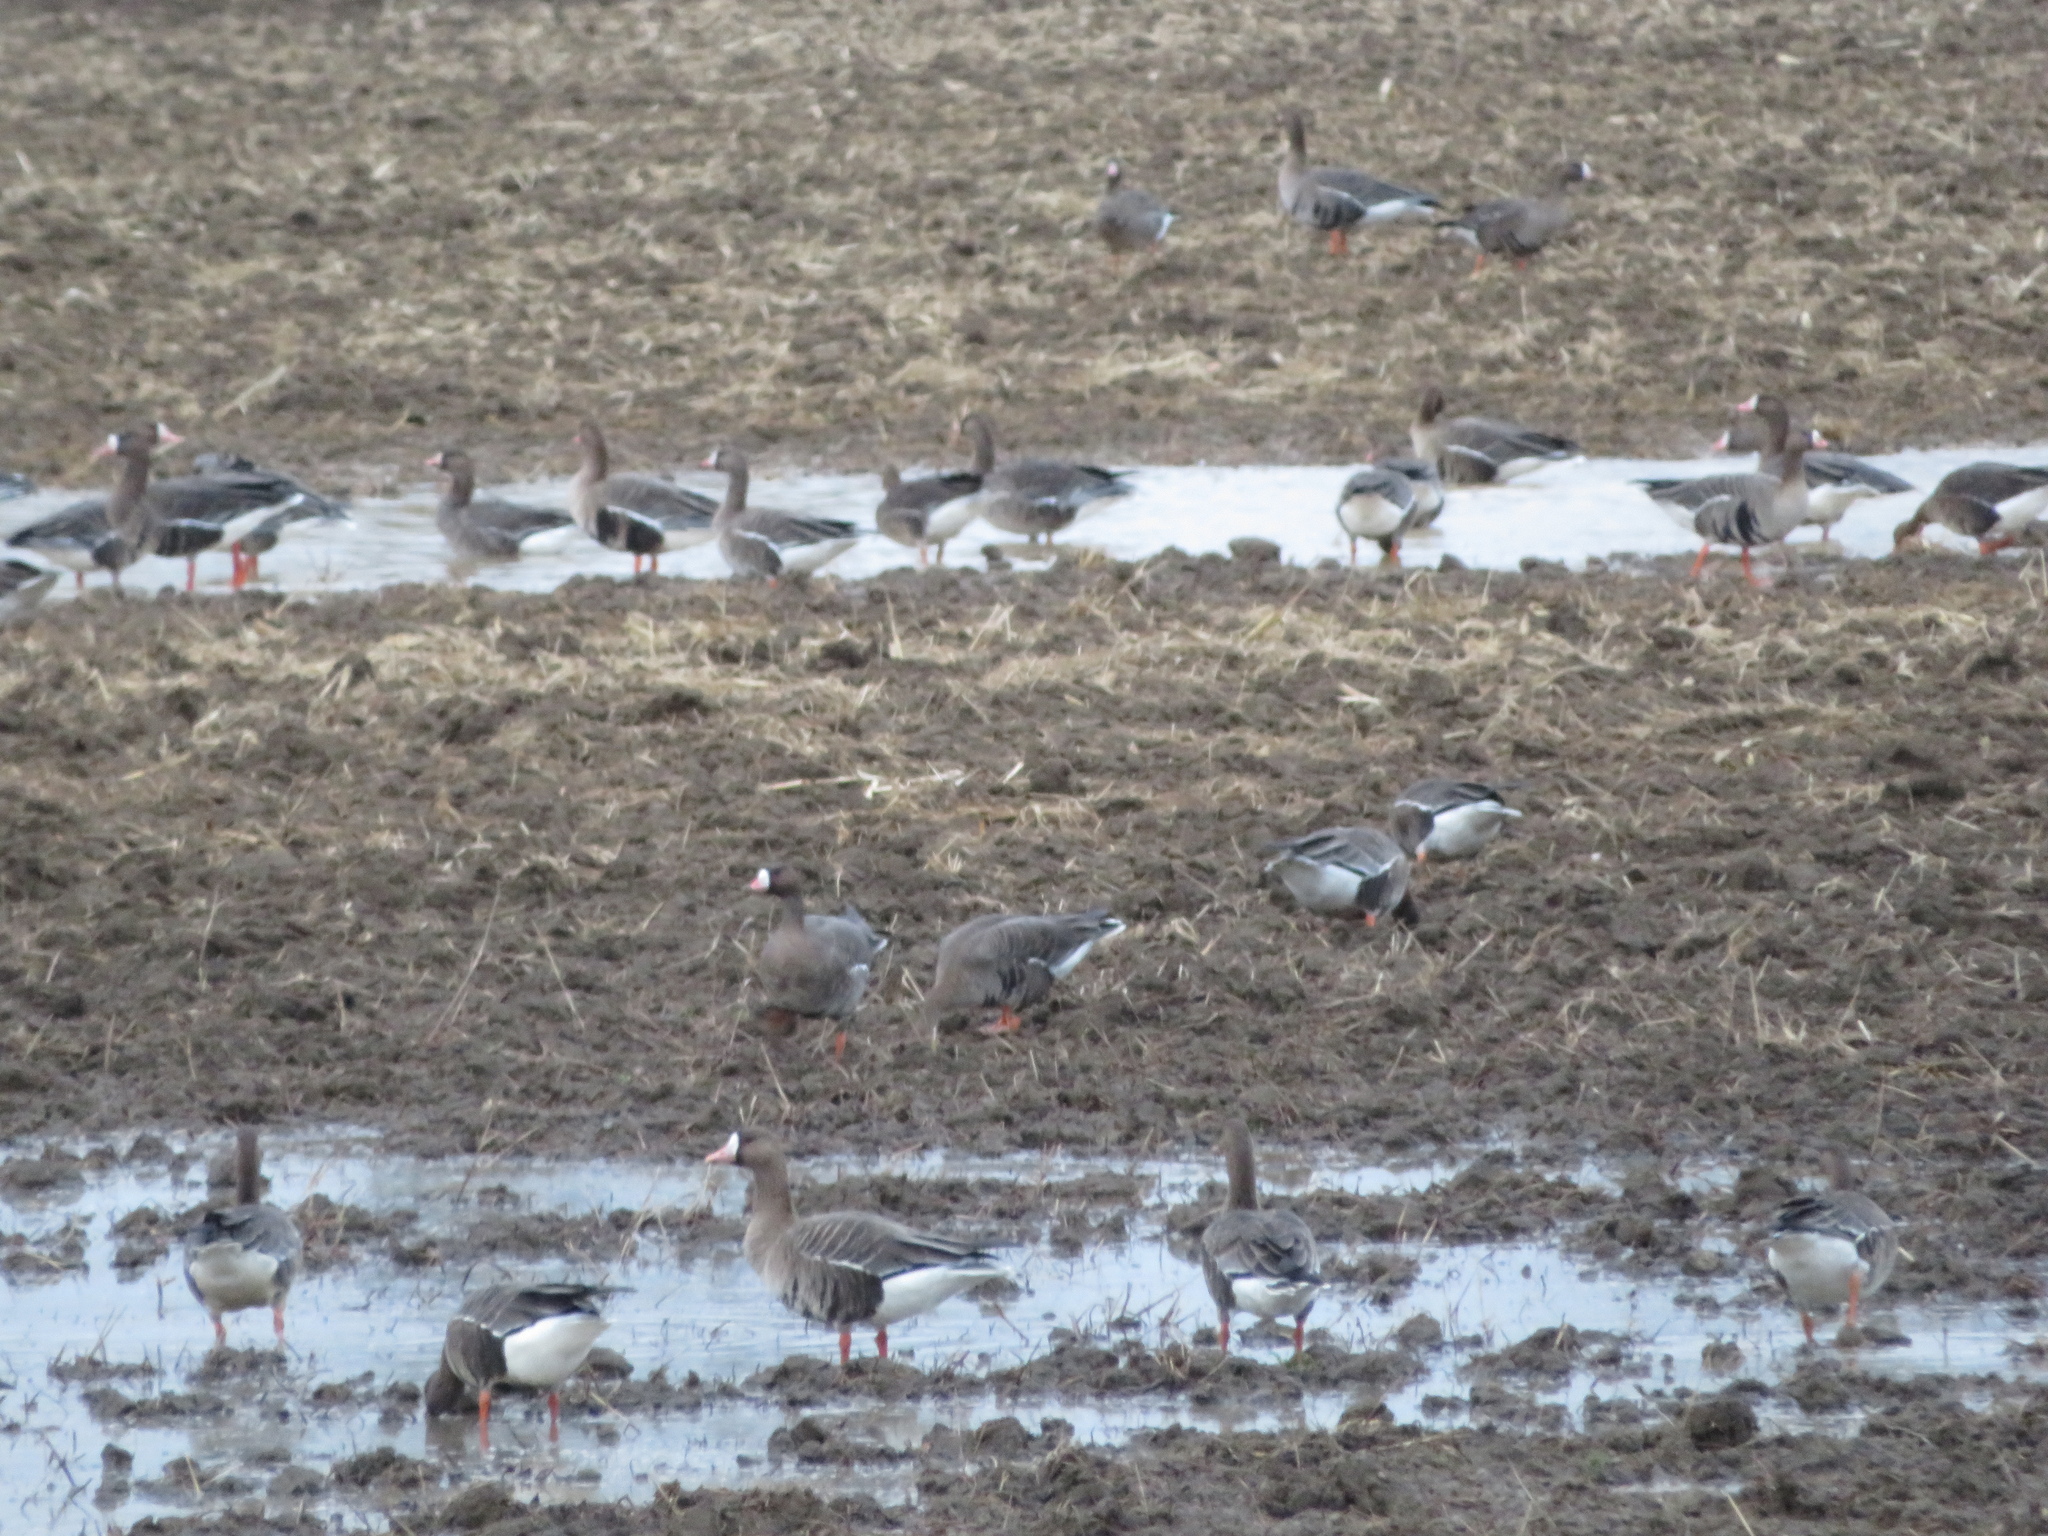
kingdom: Animalia
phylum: Chordata
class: Aves
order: Anseriformes
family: Anatidae
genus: Anser
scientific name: Anser albifrons
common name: Greater white-fronted goose
